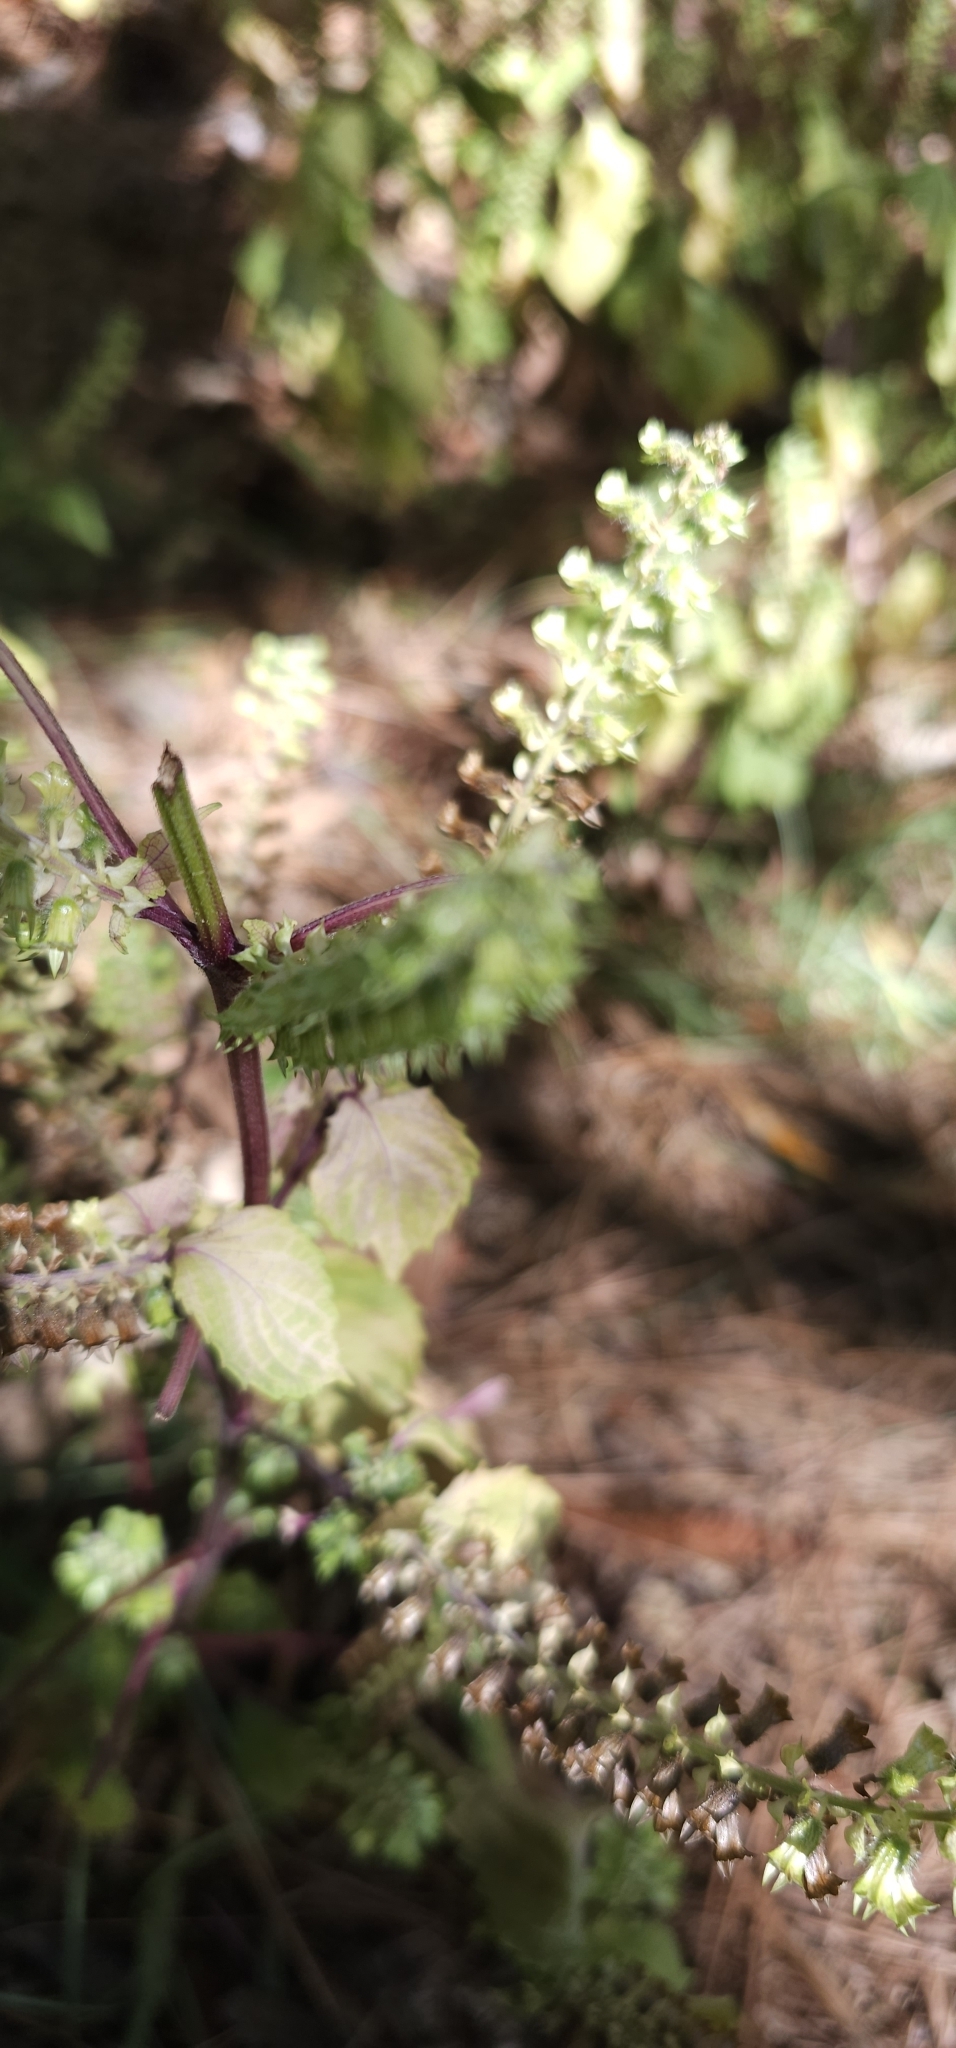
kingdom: Plantae
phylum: Tracheophyta
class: Magnoliopsida
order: Lamiales
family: Lamiaceae
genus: Perilla
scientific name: Perilla frutescens
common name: Perilla
